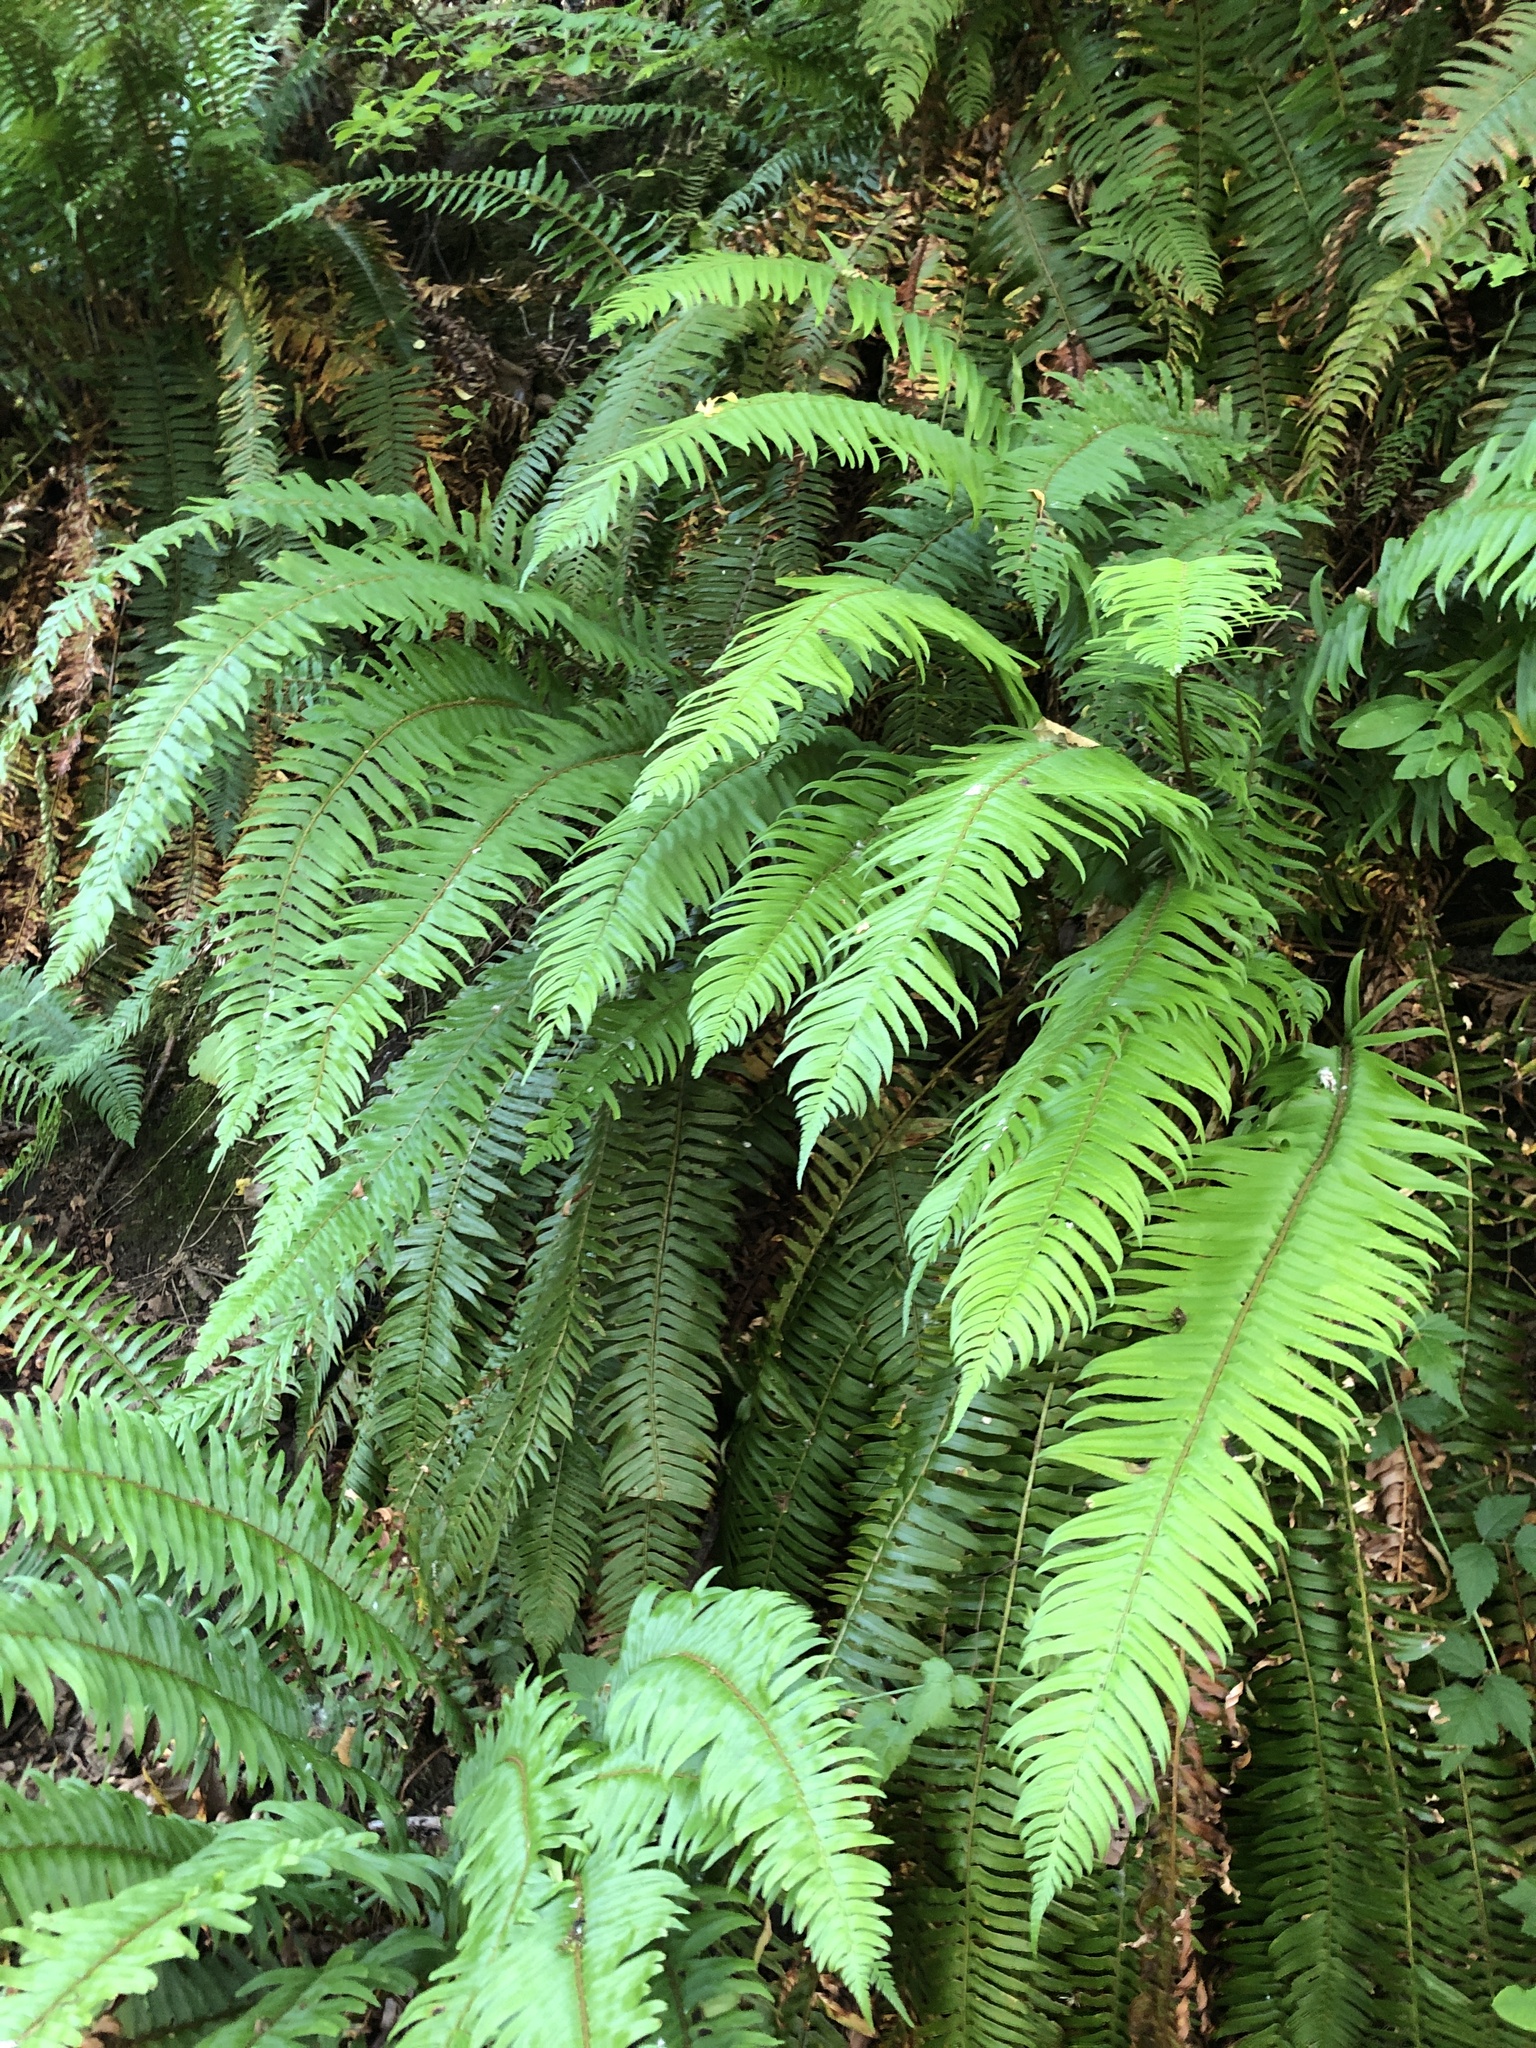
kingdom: Plantae
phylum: Tracheophyta
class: Polypodiopsida
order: Polypodiales
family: Dryopteridaceae
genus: Polystichum
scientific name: Polystichum munitum
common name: Western sword-fern
